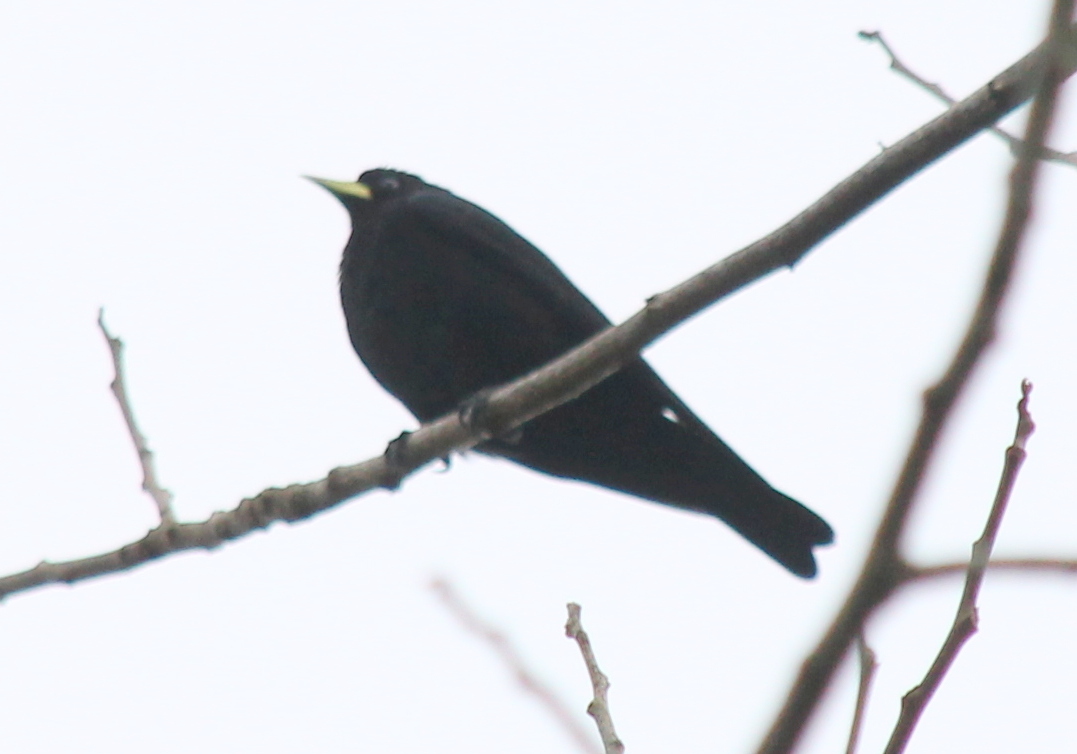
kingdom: Animalia
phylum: Chordata
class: Aves
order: Passeriformes
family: Icteridae
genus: Cacicus
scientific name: Cacicus haemorrhous
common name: Red-rumped cacique
